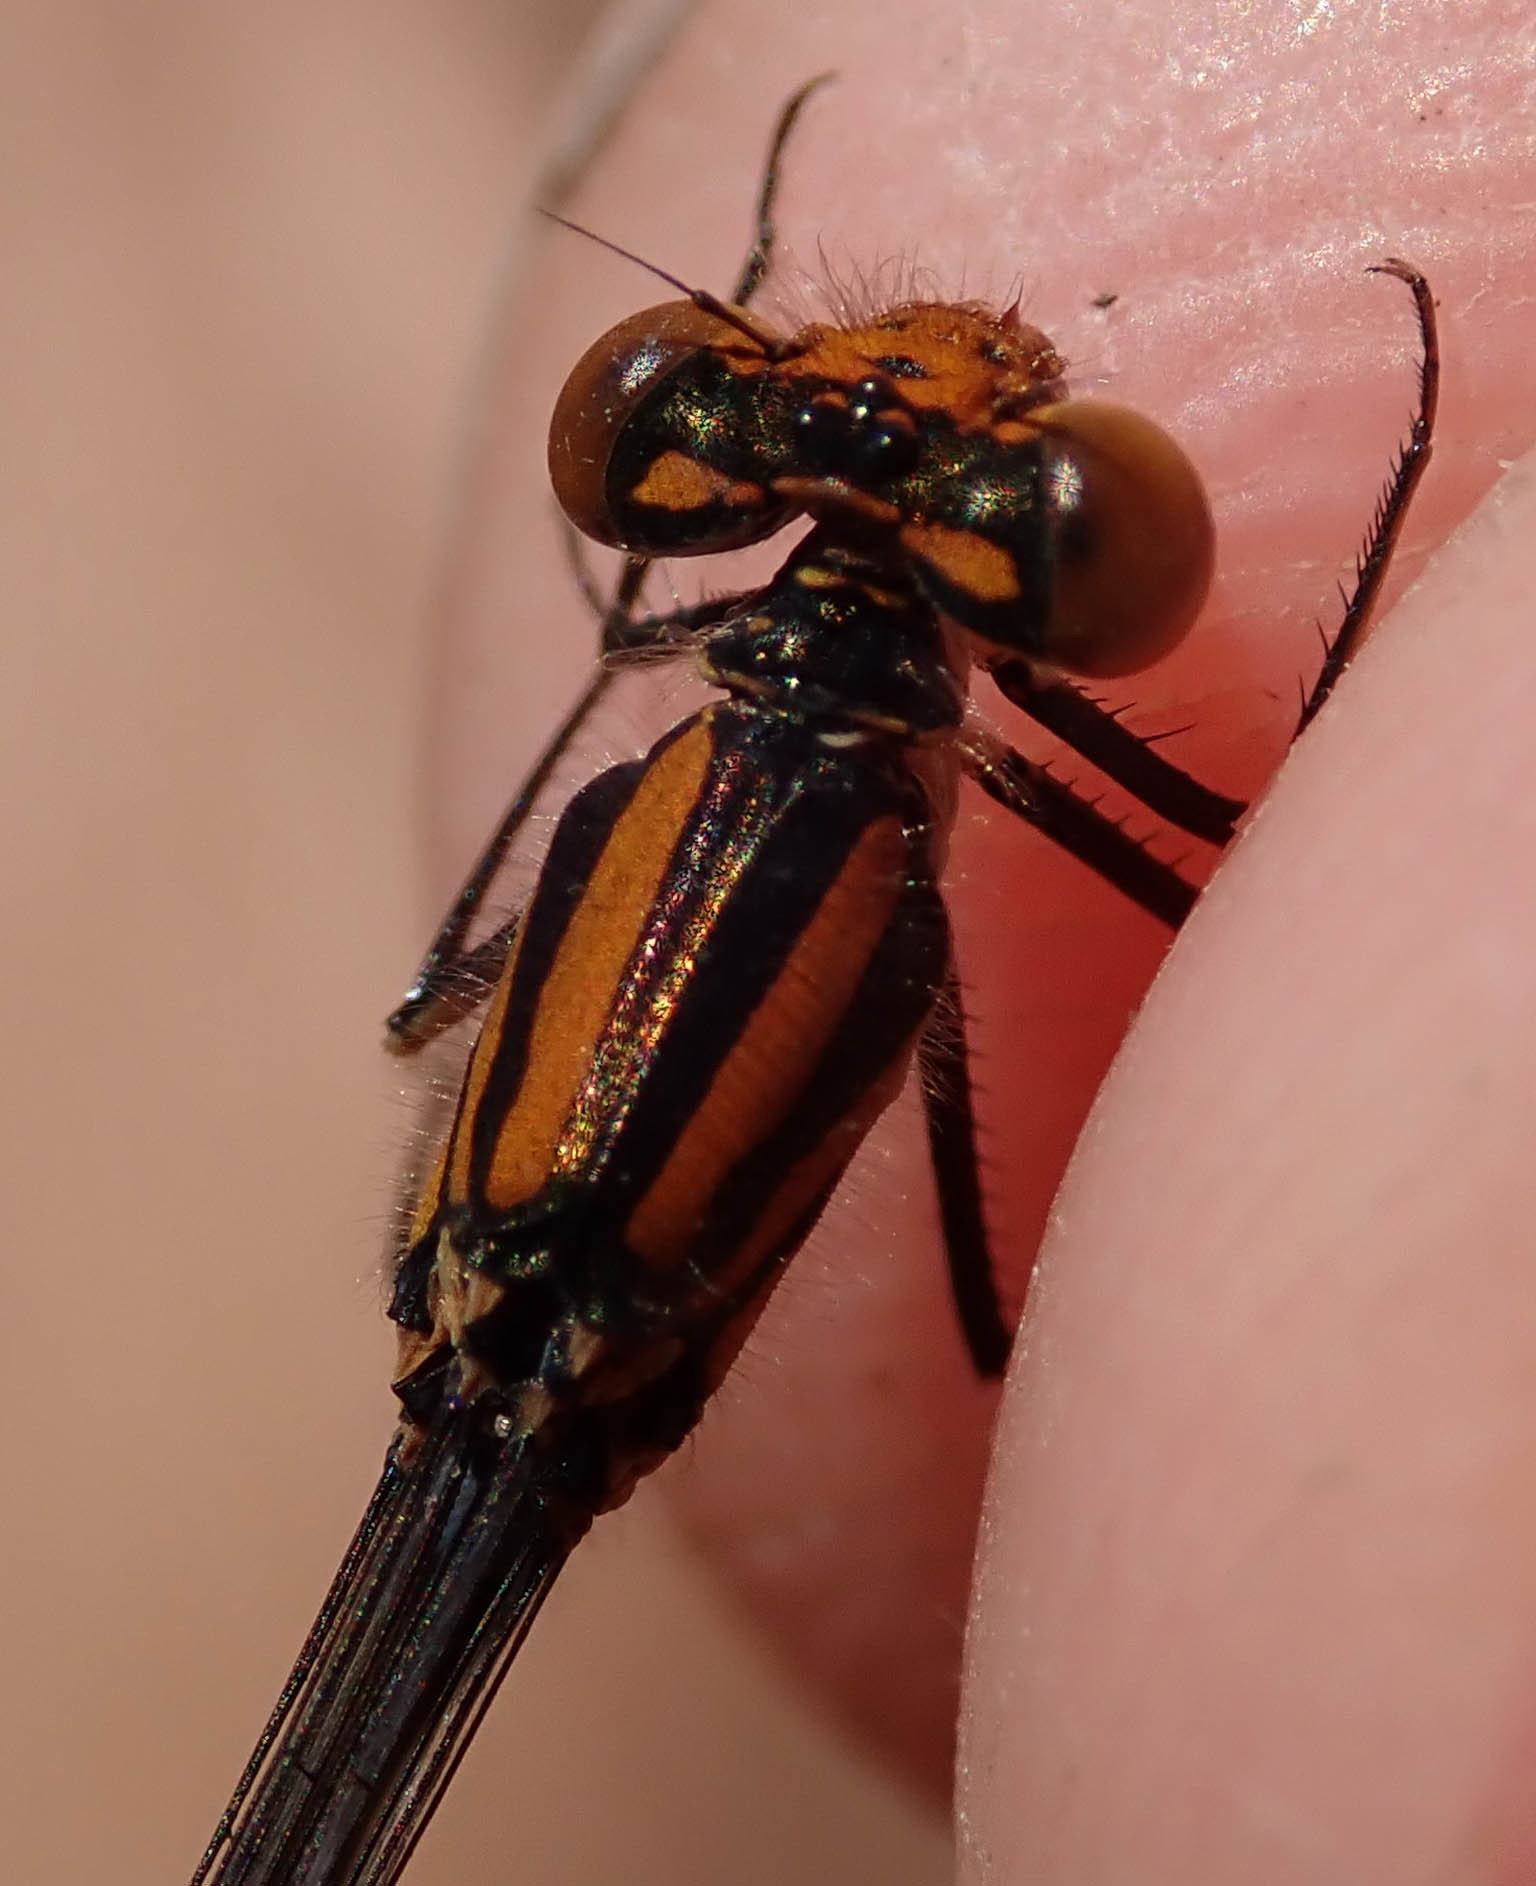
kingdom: Animalia
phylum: Arthropoda
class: Insecta
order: Odonata
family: Coenagrionidae
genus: Pseudagrion
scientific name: Pseudagrion rufostigma
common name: Dark sprite
